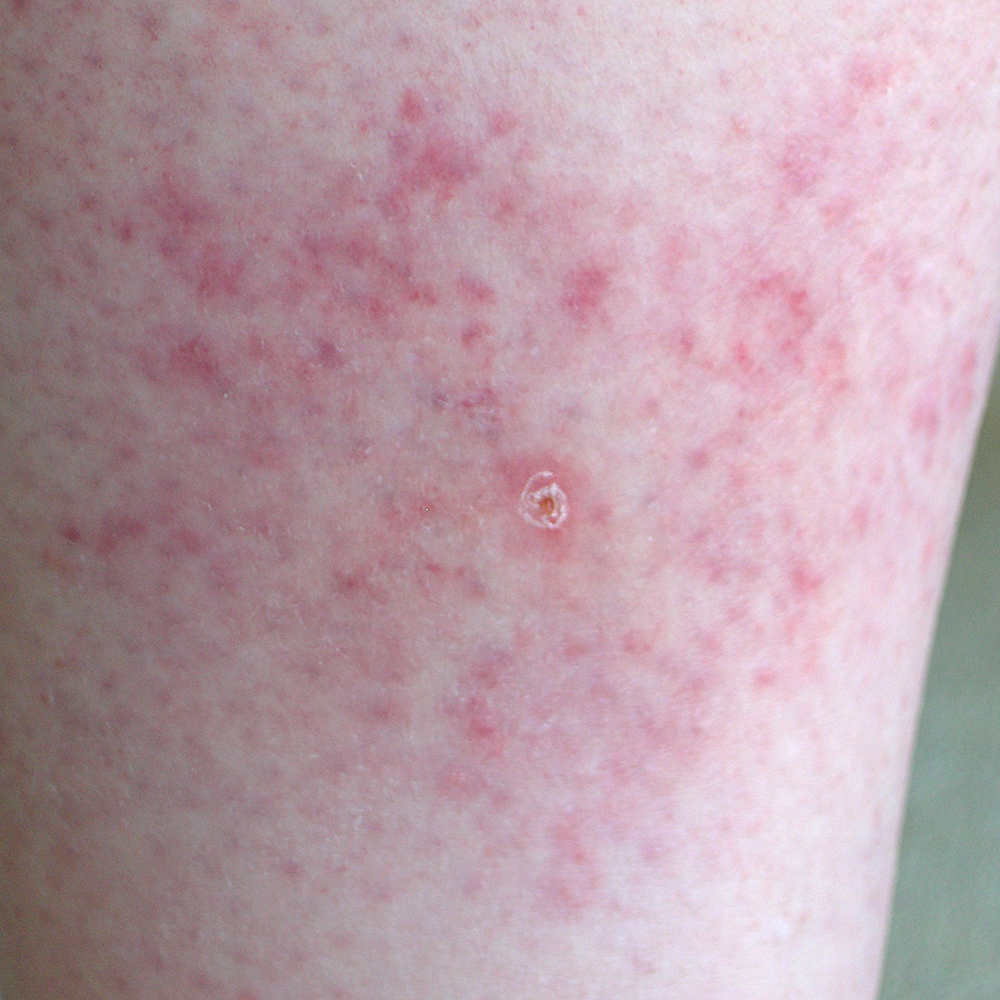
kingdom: Bacteria
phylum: Spirochaetota
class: Spirochaetia
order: Borreliales
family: Borreliaceae
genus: Borreliella
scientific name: Borreliella burgdorferi
